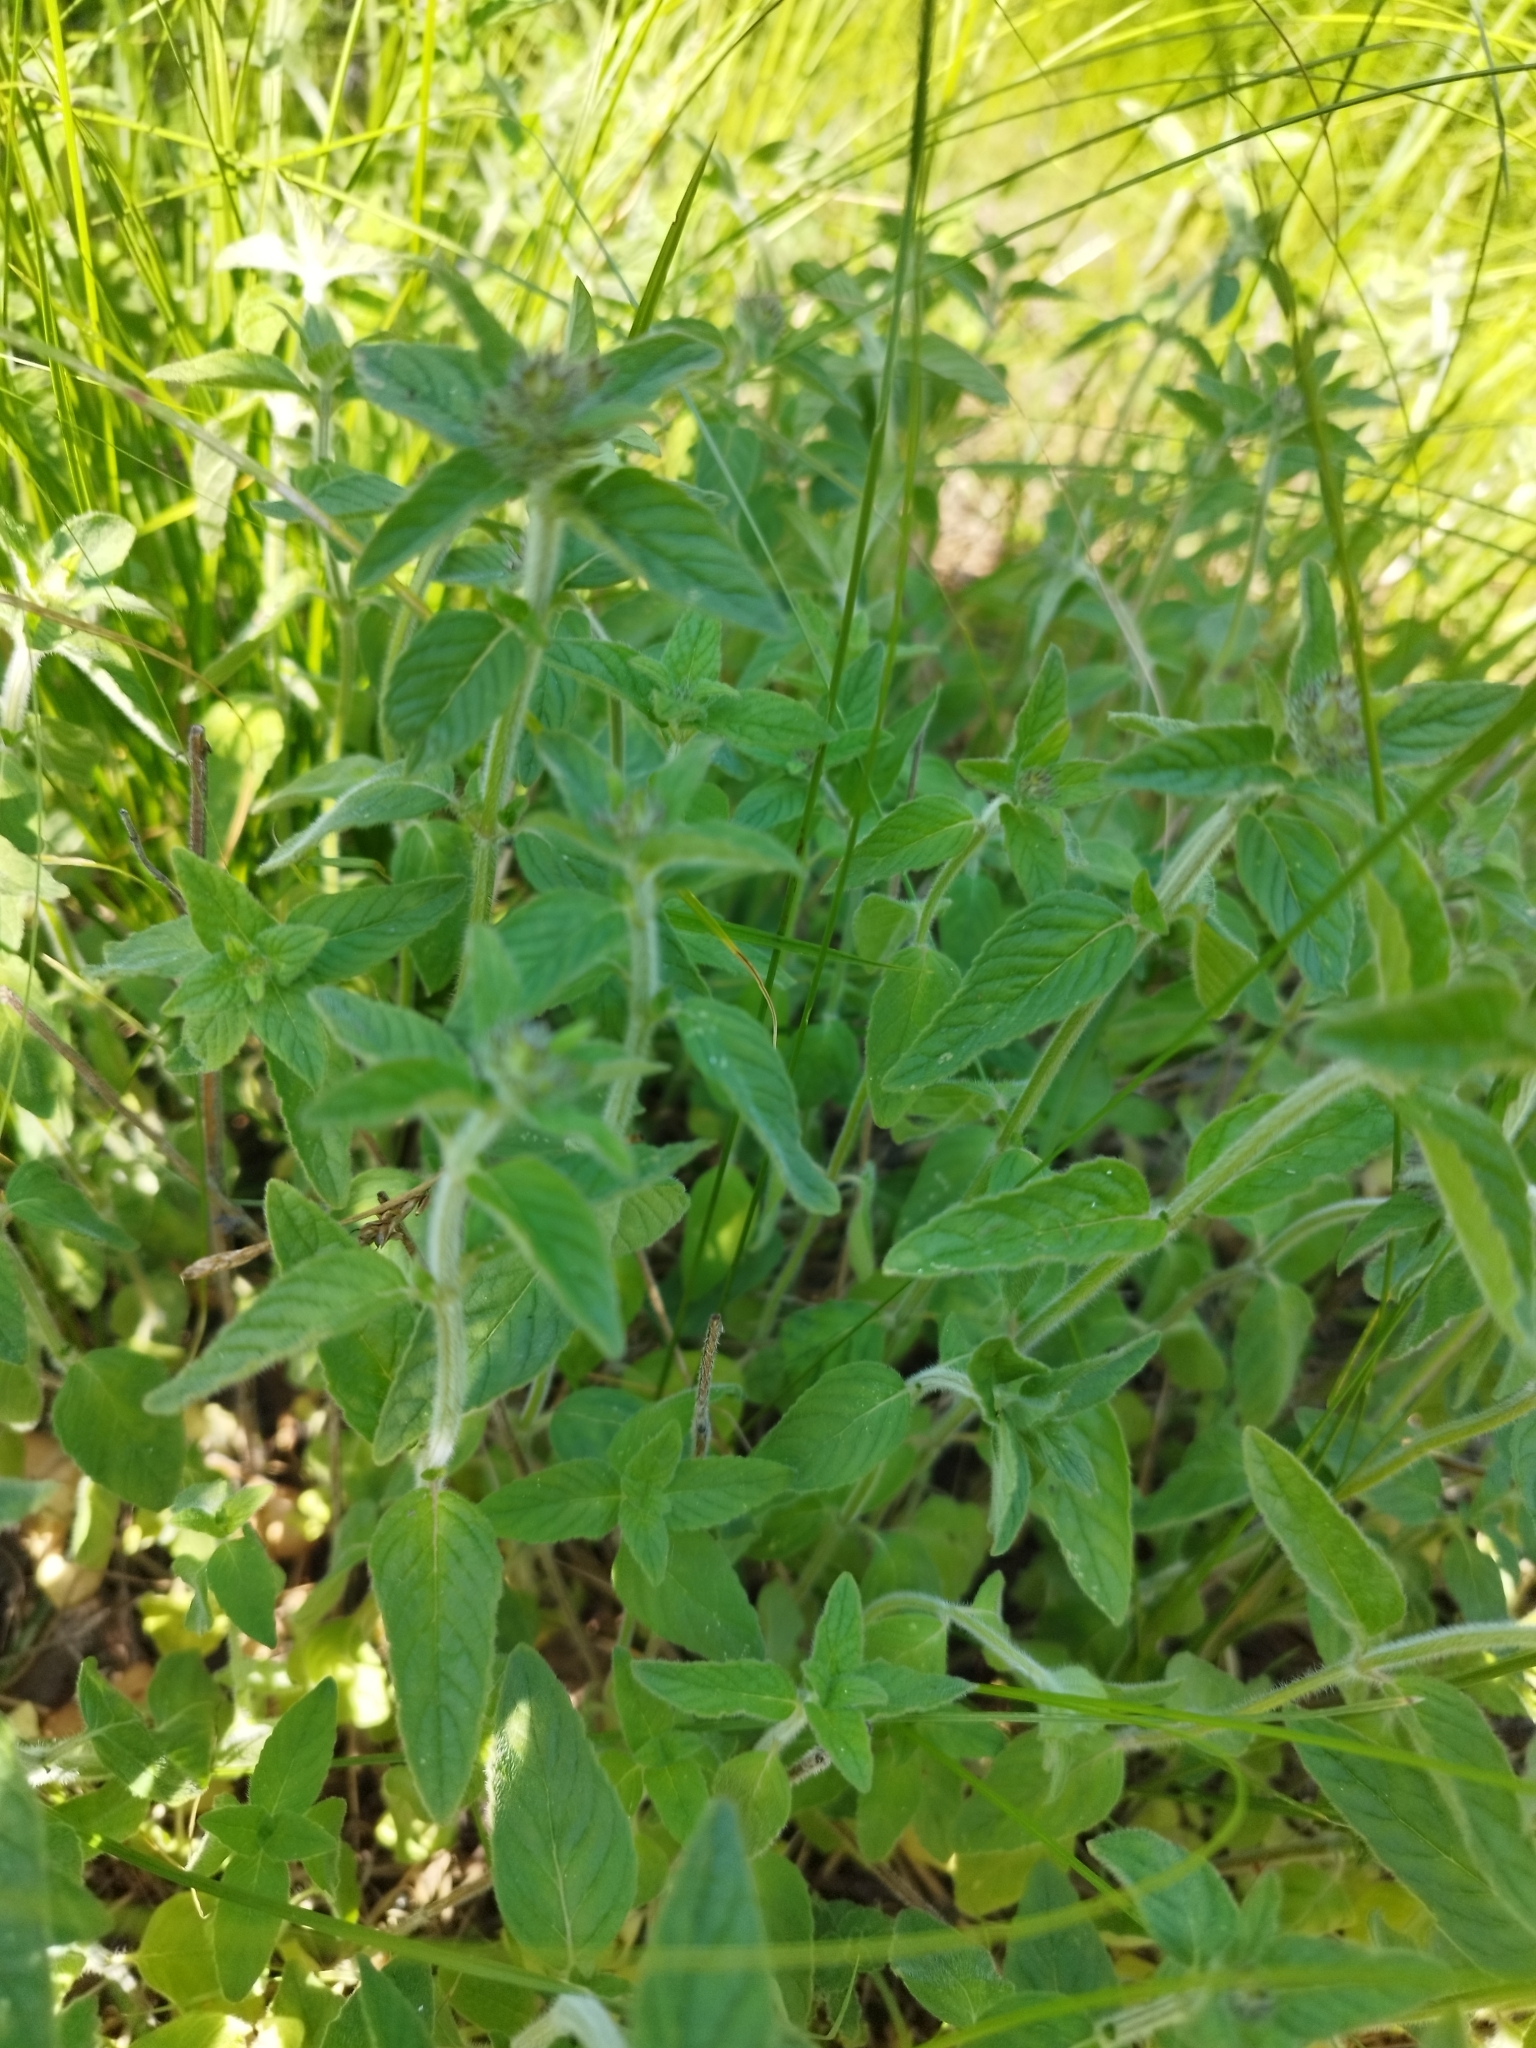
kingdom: Plantae
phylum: Tracheophyta
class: Magnoliopsida
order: Lamiales
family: Lamiaceae
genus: Clinopodium
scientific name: Clinopodium vulgare
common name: Wild basil
